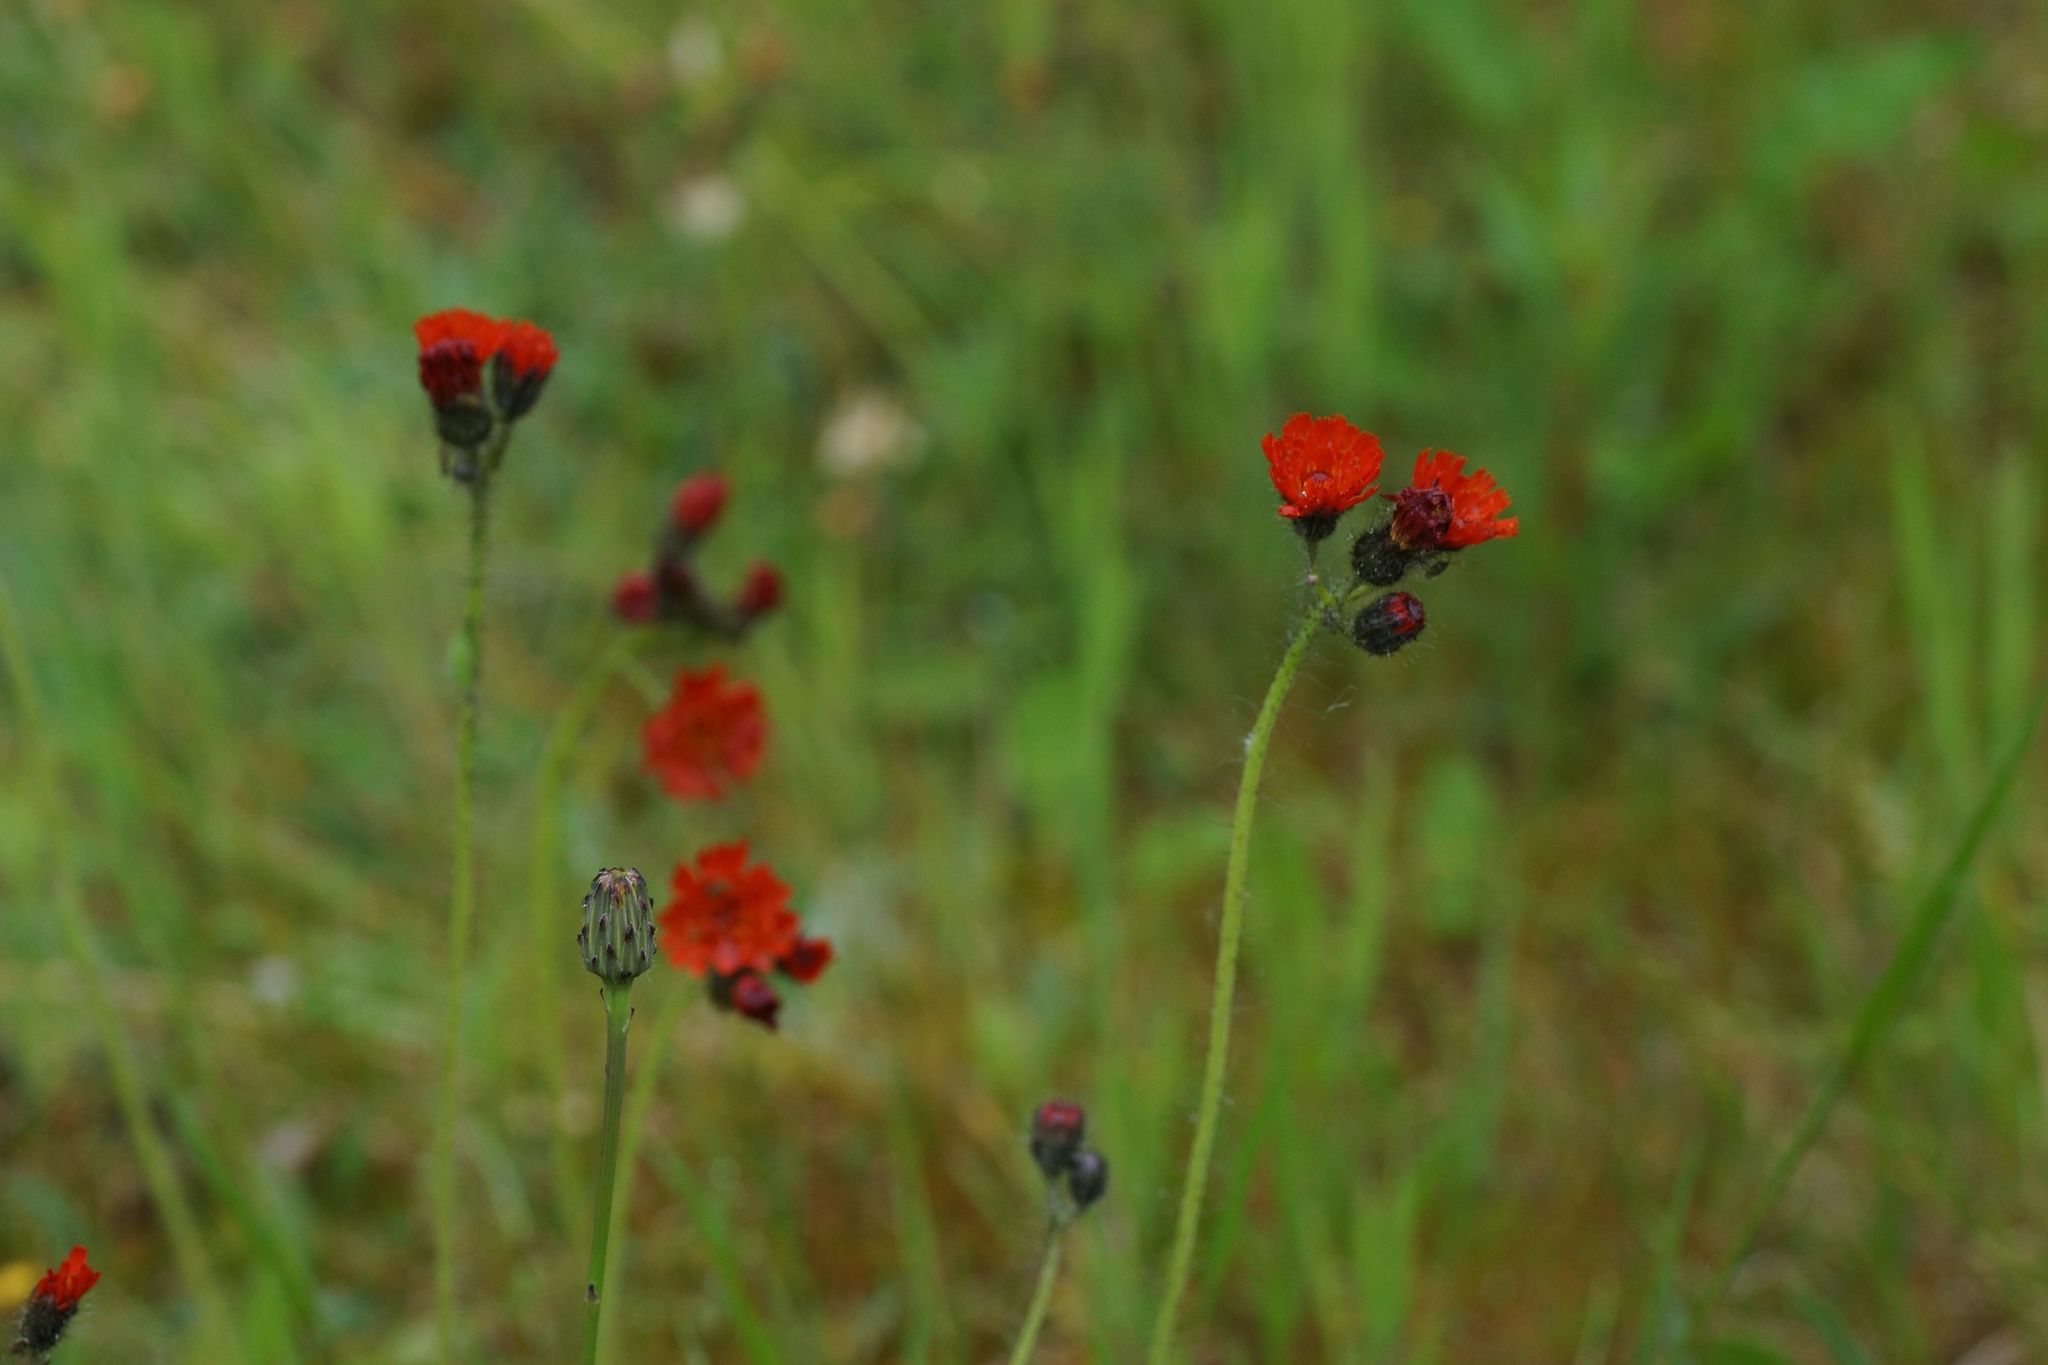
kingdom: Plantae
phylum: Tracheophyta
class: Magnoliopsida
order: Asterales
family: Asteraceae
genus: Pilosella
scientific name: Pilosella aurantiaca
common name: Fox-and-cubs
